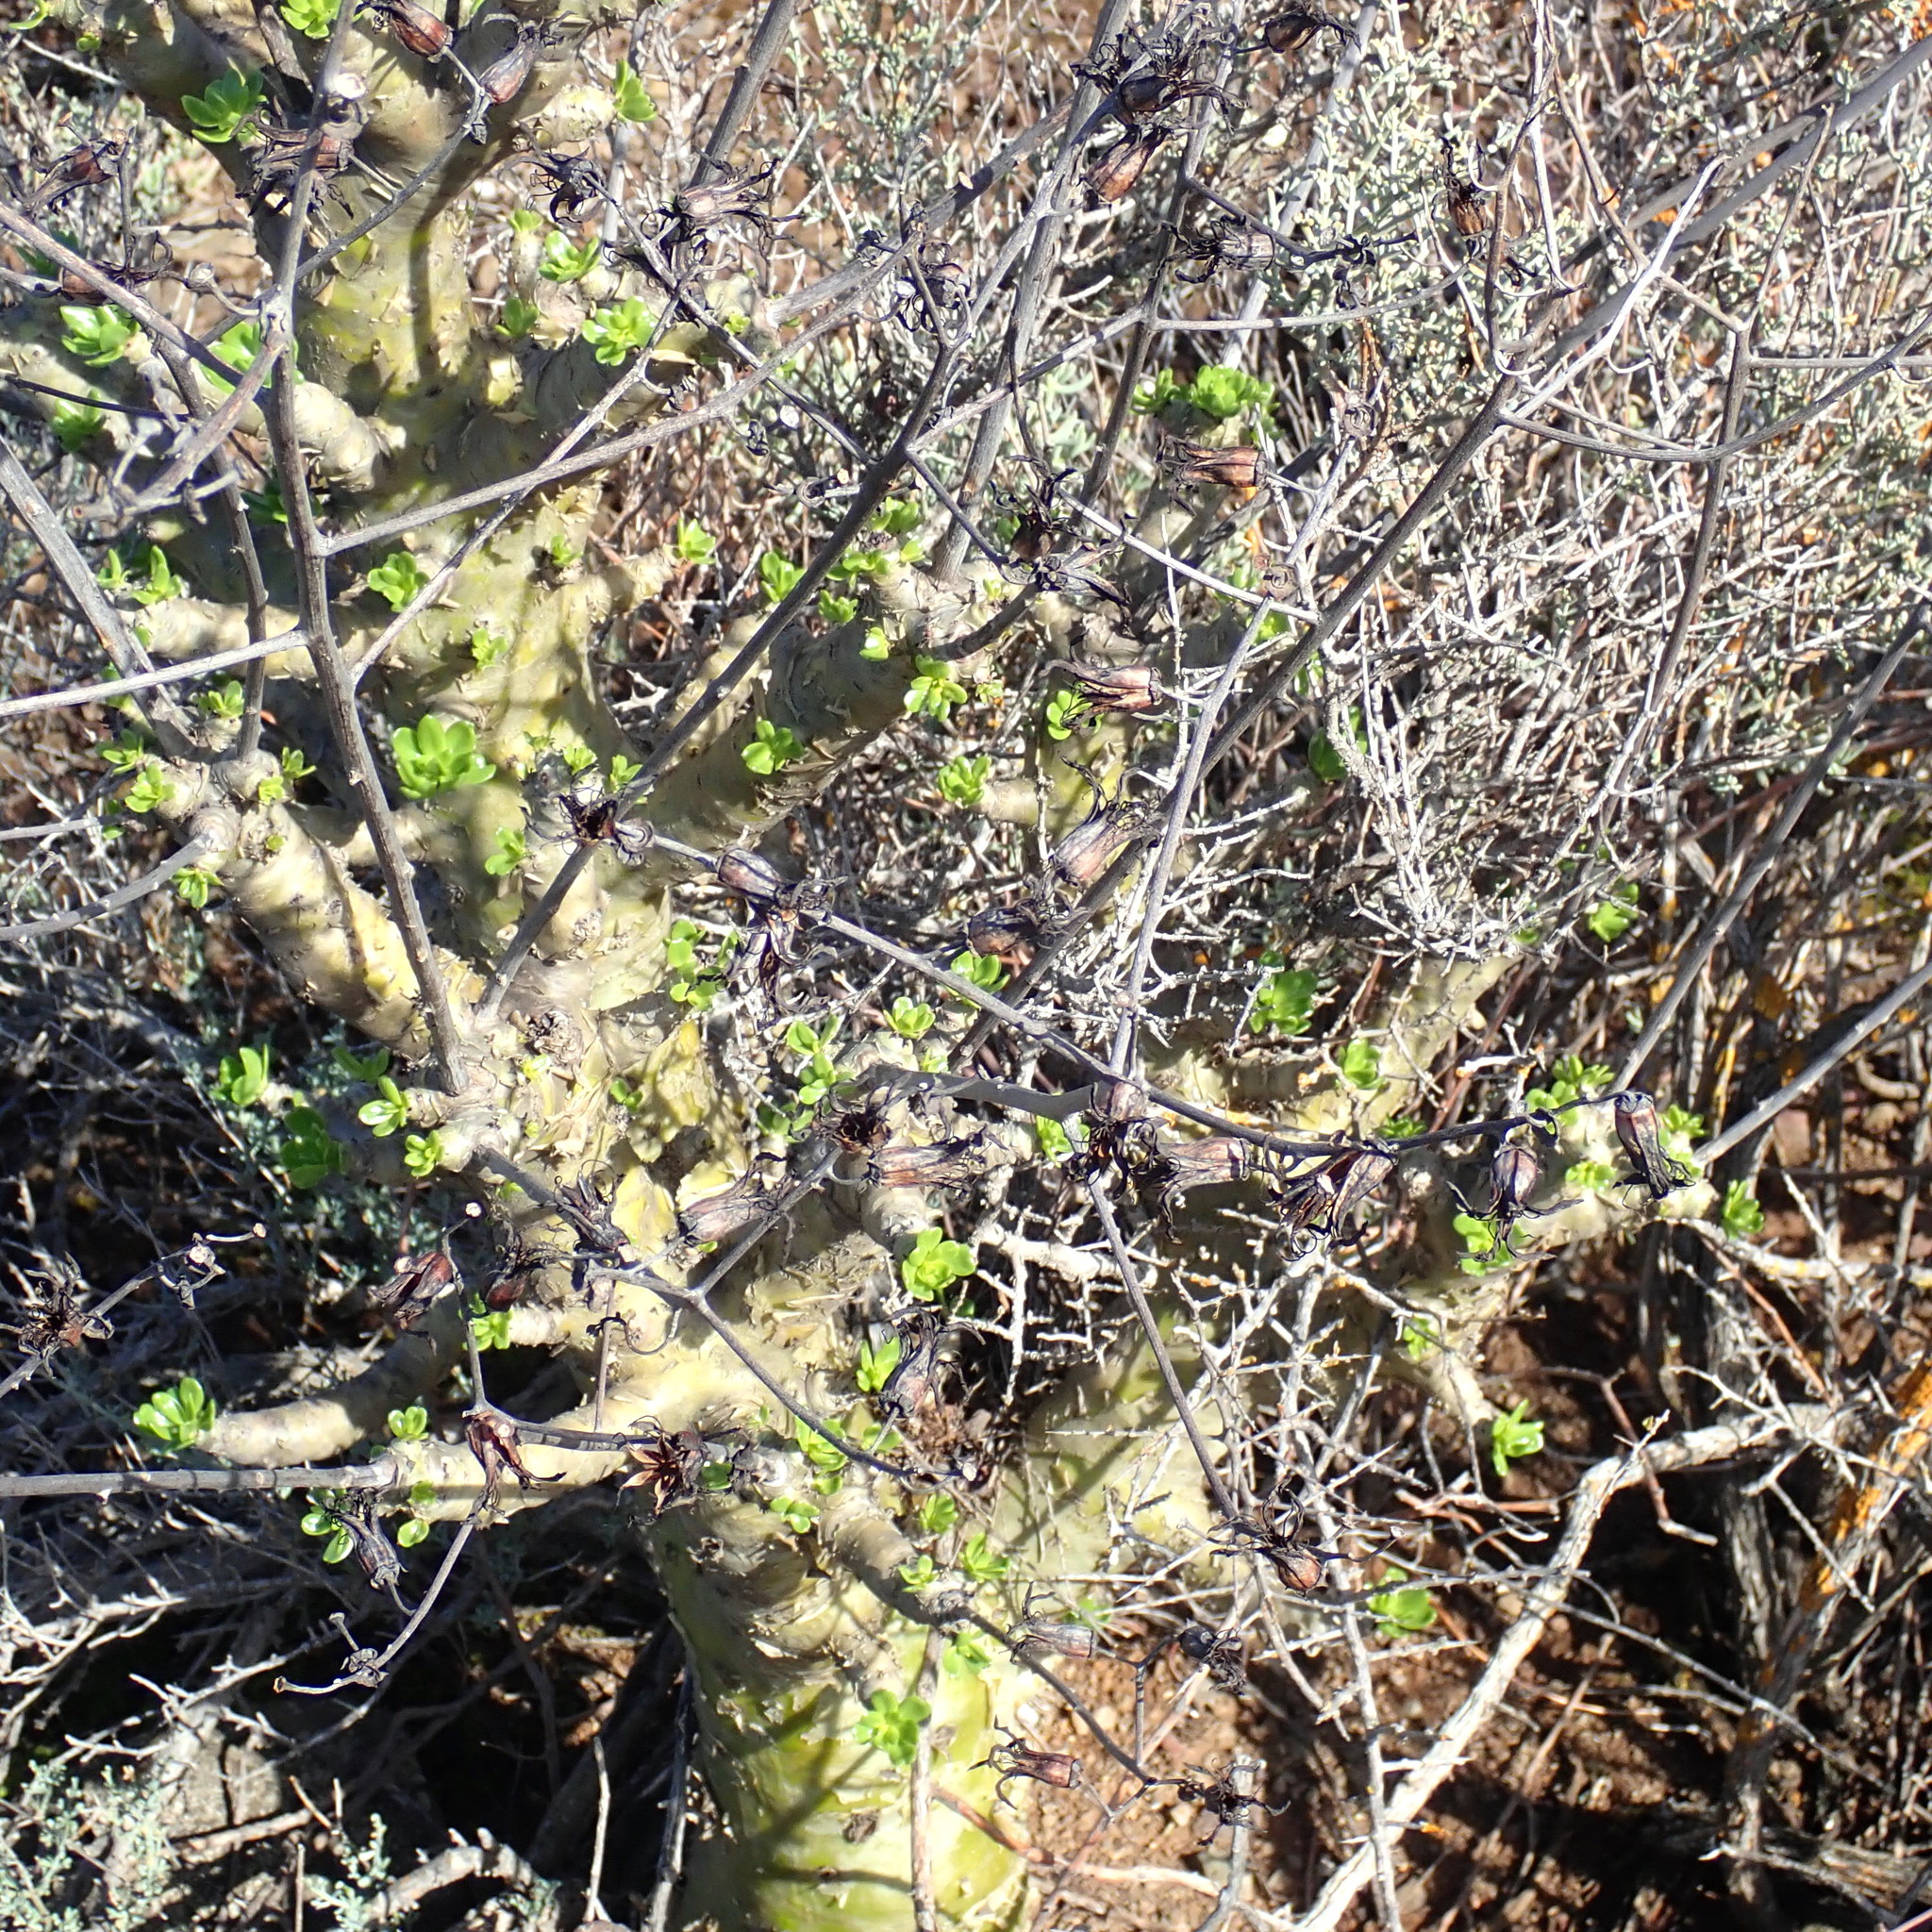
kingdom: Plantae
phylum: Tracheophyta
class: Magnoliopsida
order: Saxifragales
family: Crassulaceae
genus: Tylecodon
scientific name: Tylecodon paniculatus
